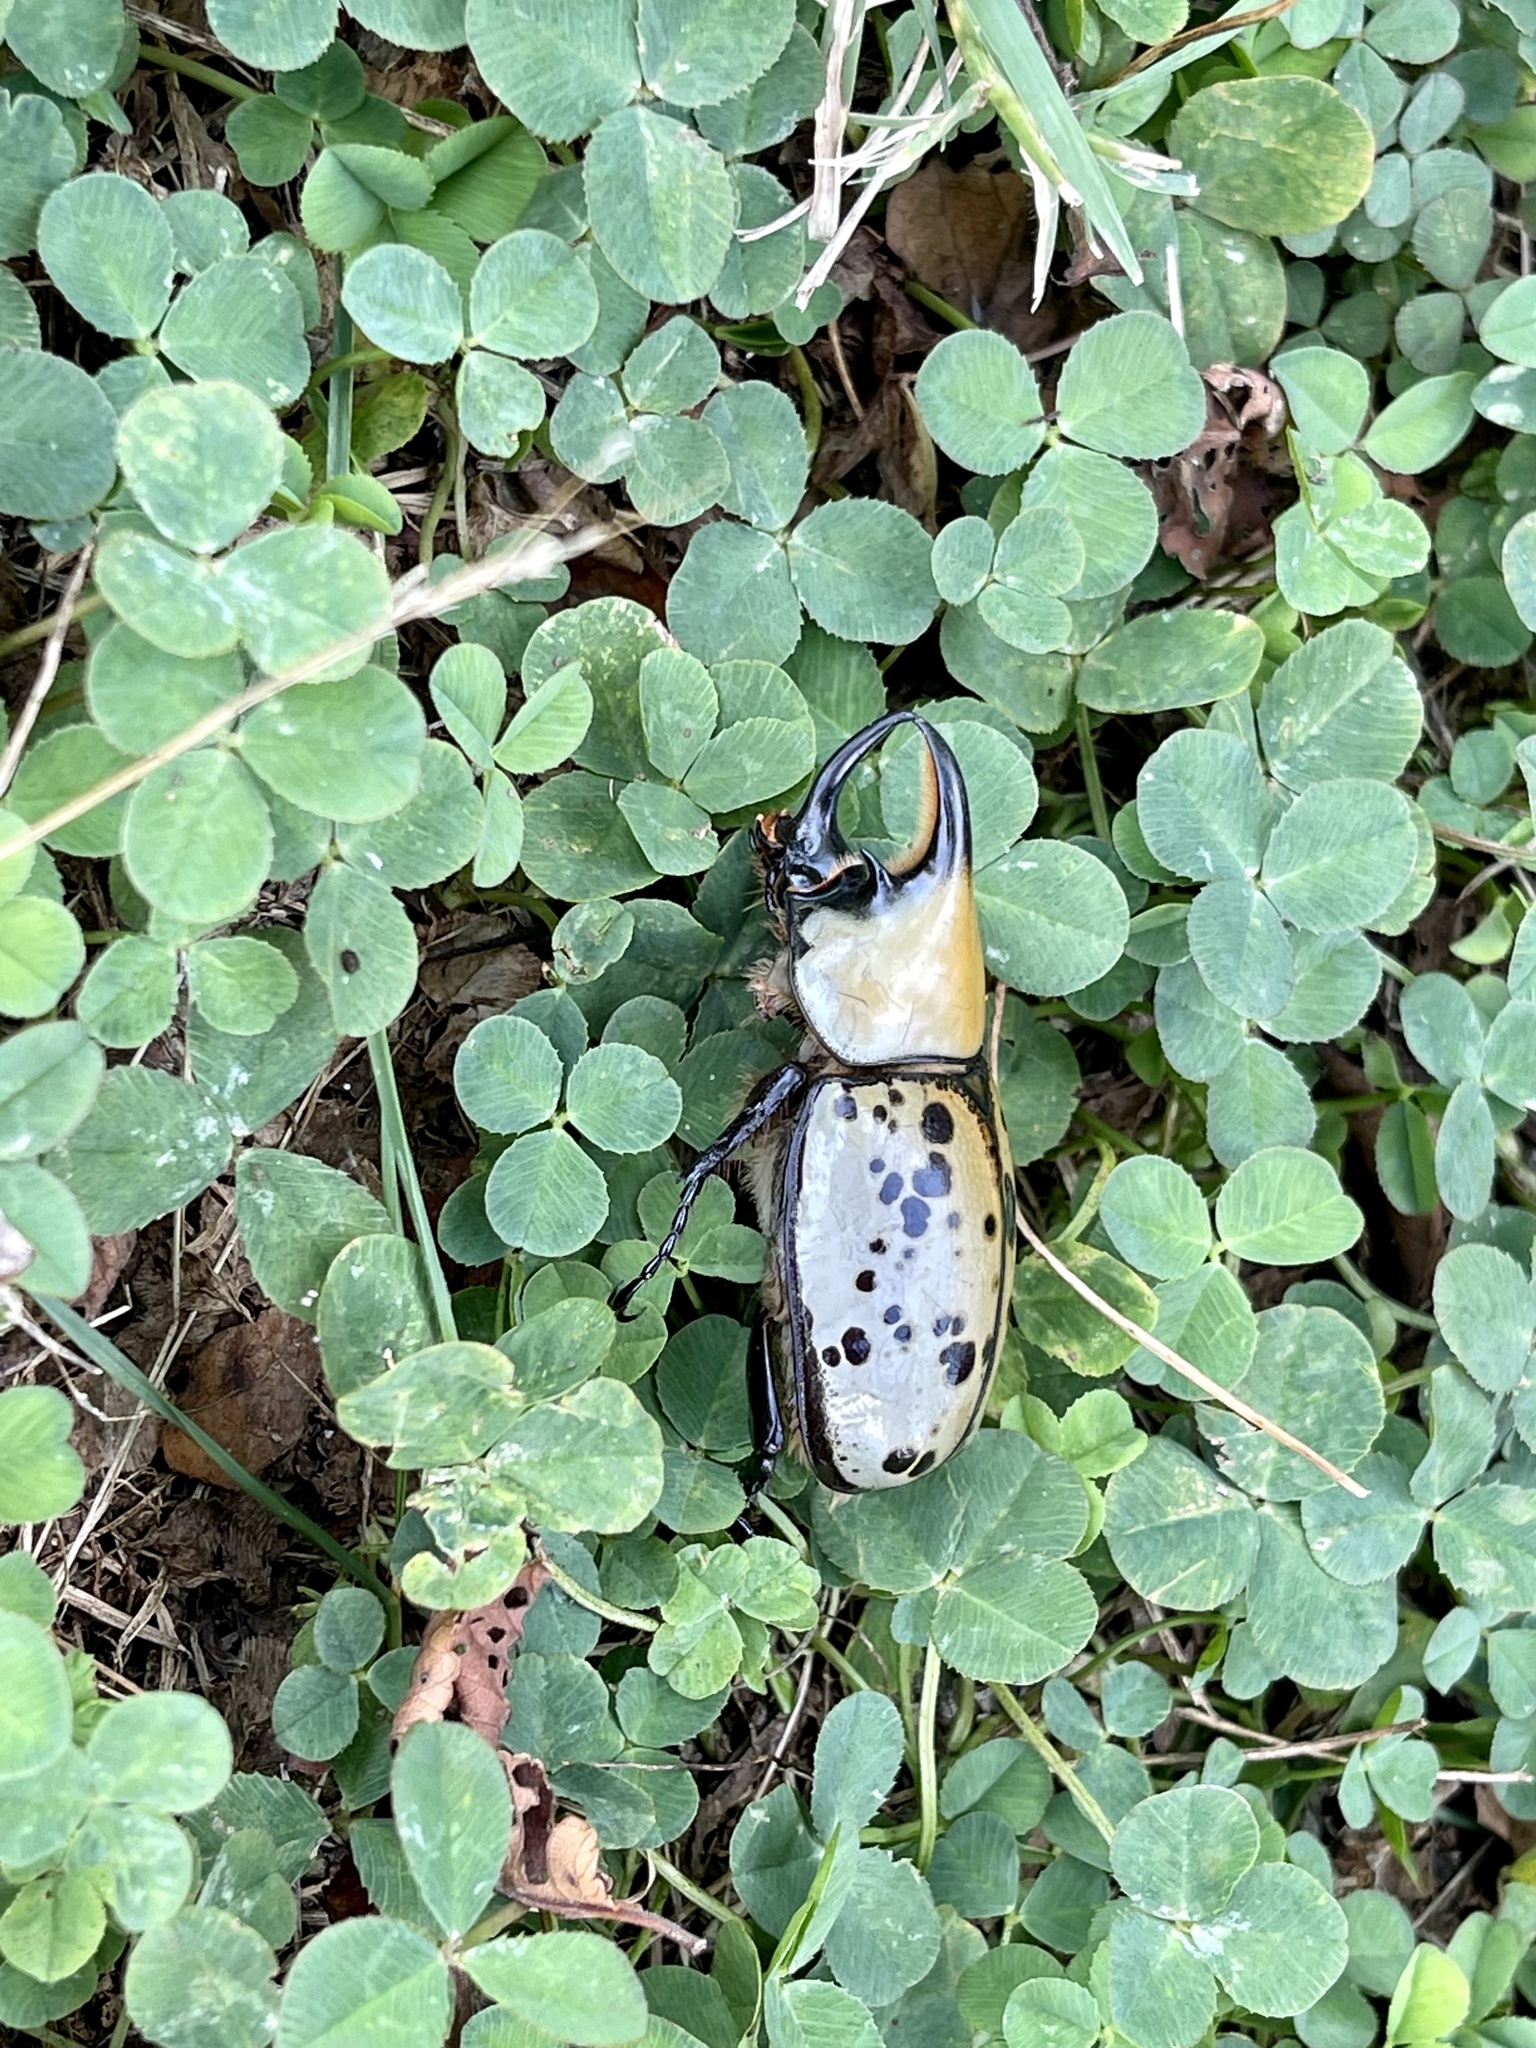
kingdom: Animalia
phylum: Arthropoda
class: Insecta
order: Coleoptera
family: Scarabaeidae
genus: Dynastes
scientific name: Dynastes tityus
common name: Eastern hercules beetle
